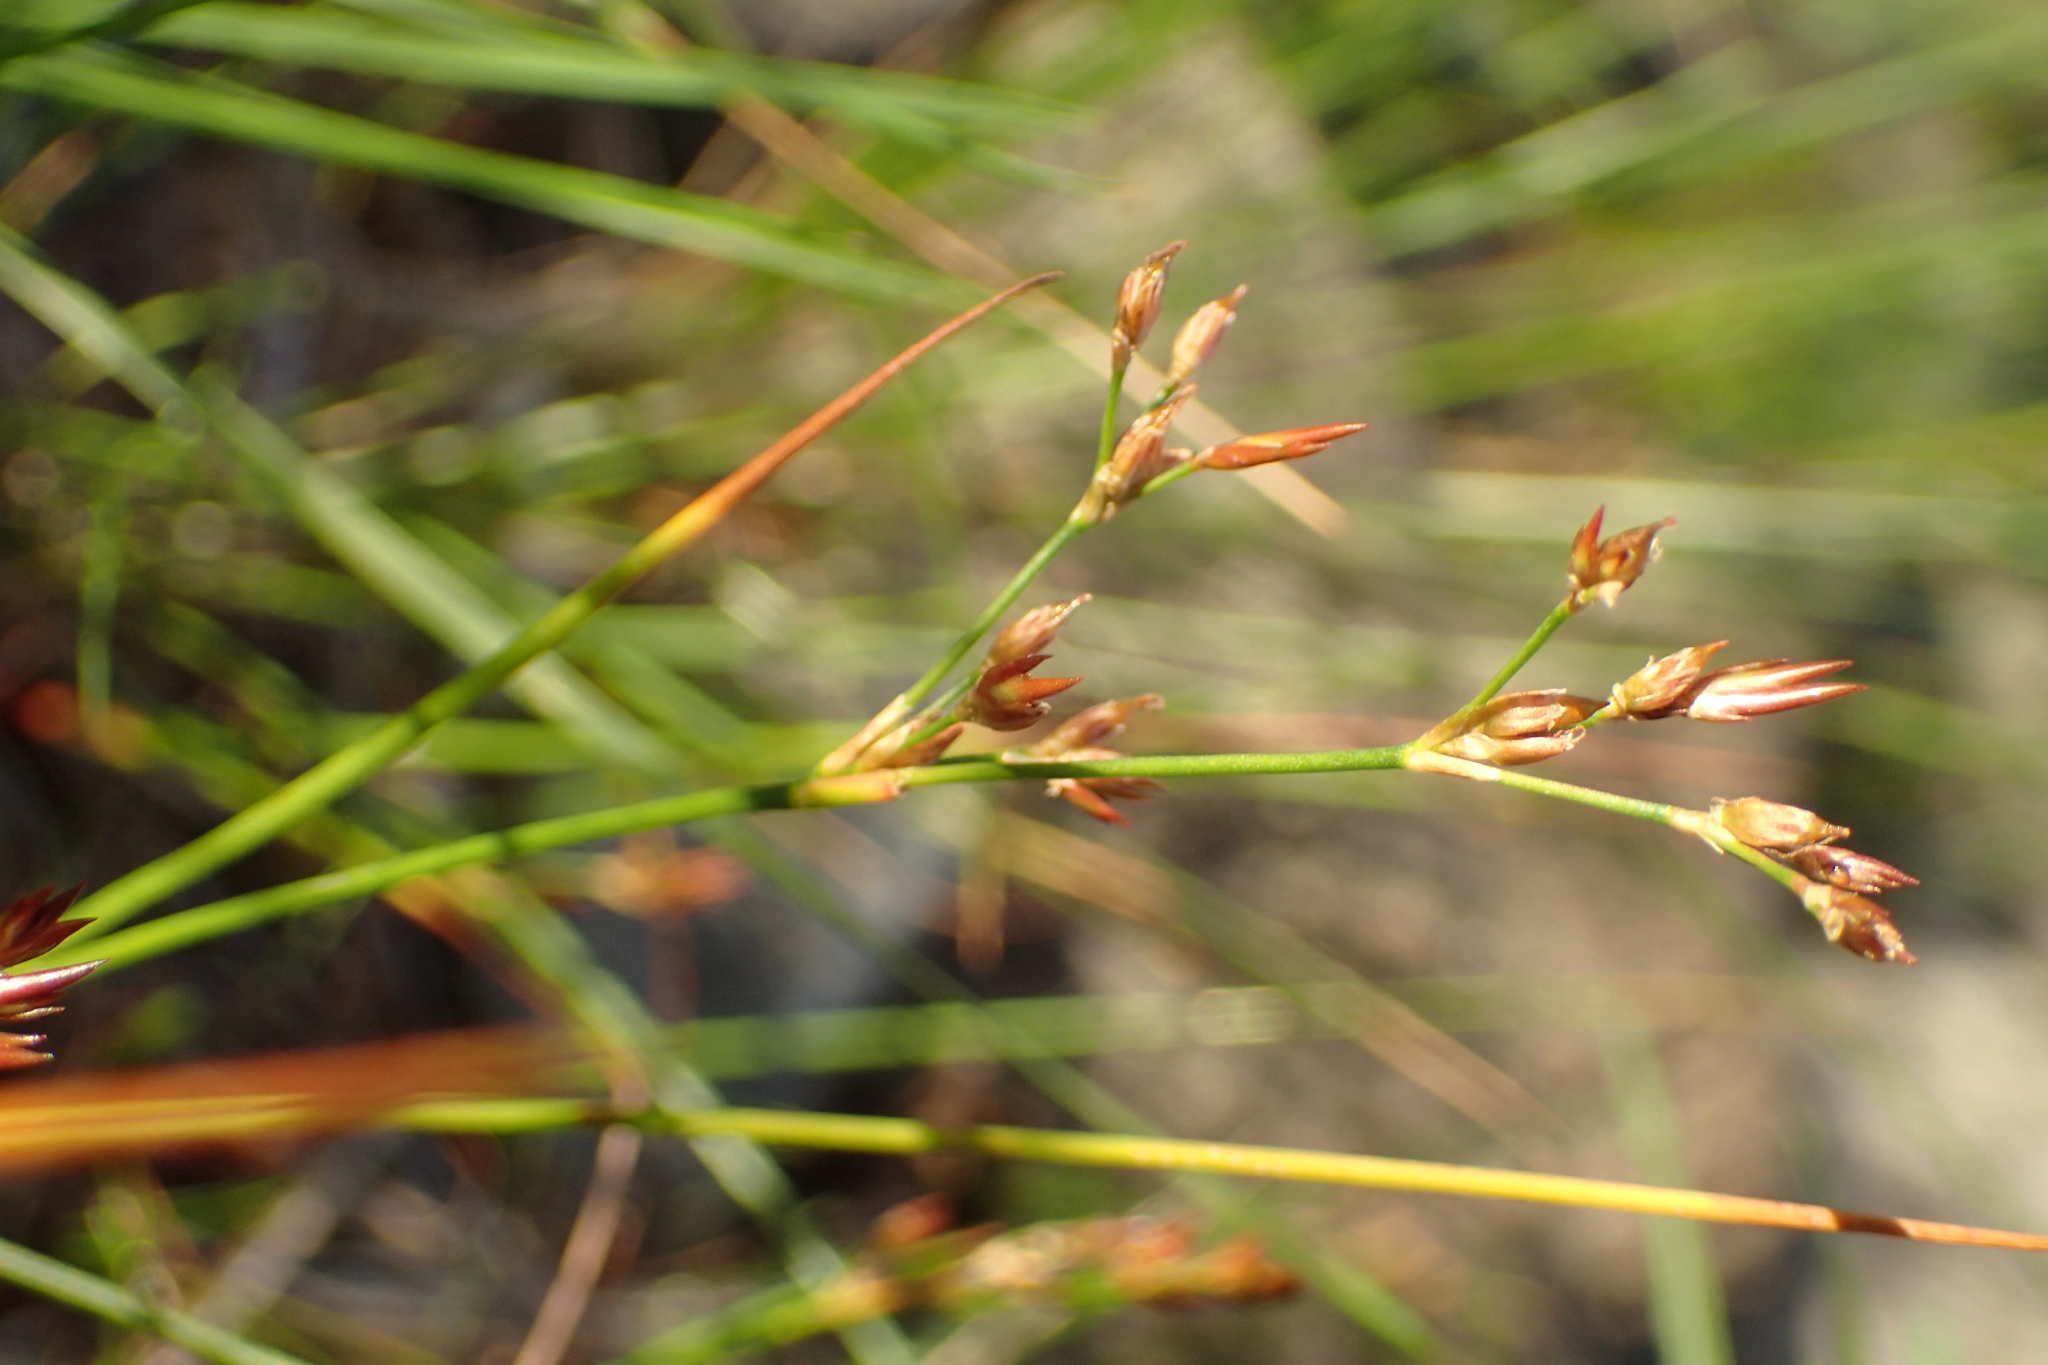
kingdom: Plantae
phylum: Tracheophyta
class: Liliopsida
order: Poales
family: Juncaceae
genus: Juncus
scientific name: Juncus pelocarpus
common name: Brown-fruited rush
